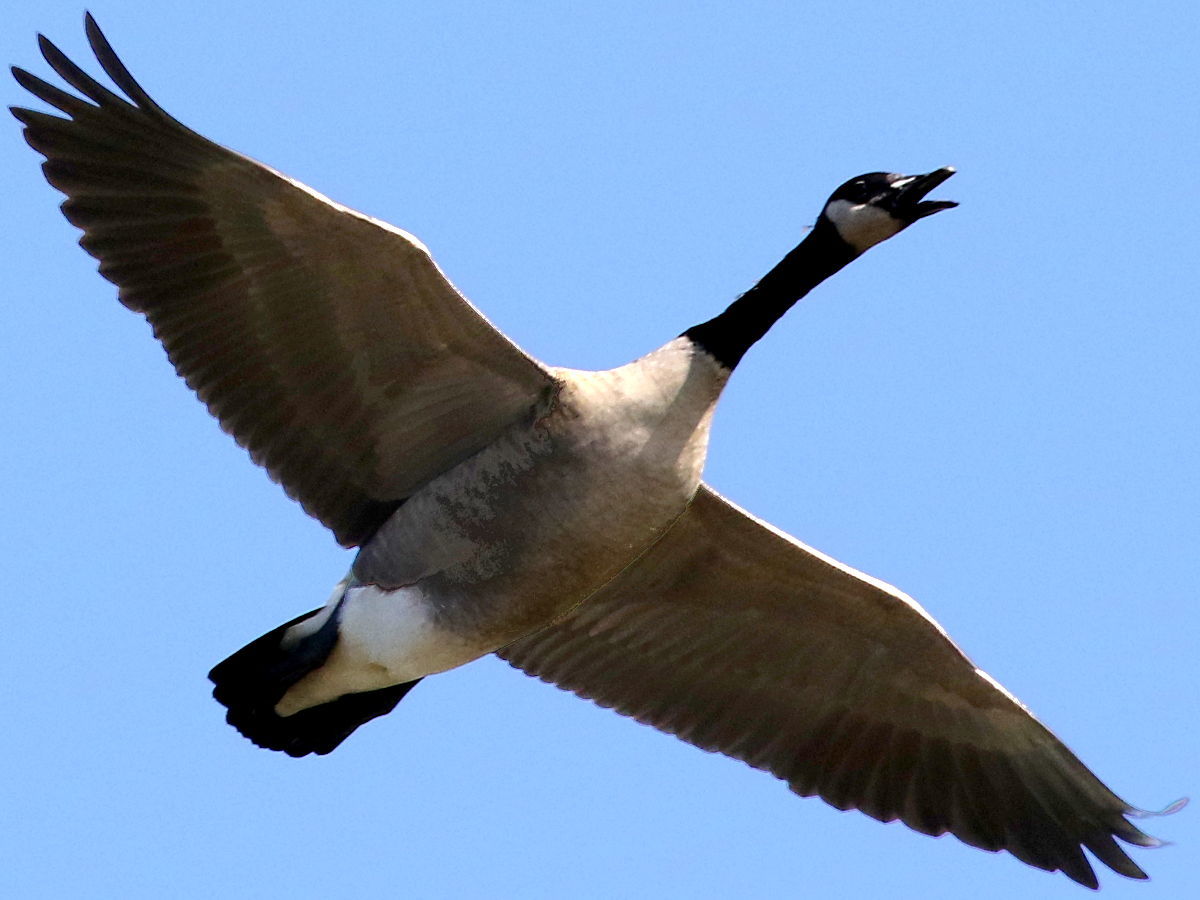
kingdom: Animalia
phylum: Chordata
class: Aves
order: Anseriformes
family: Anatidae
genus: Branta
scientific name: Branta canadensis
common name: Canada goose
